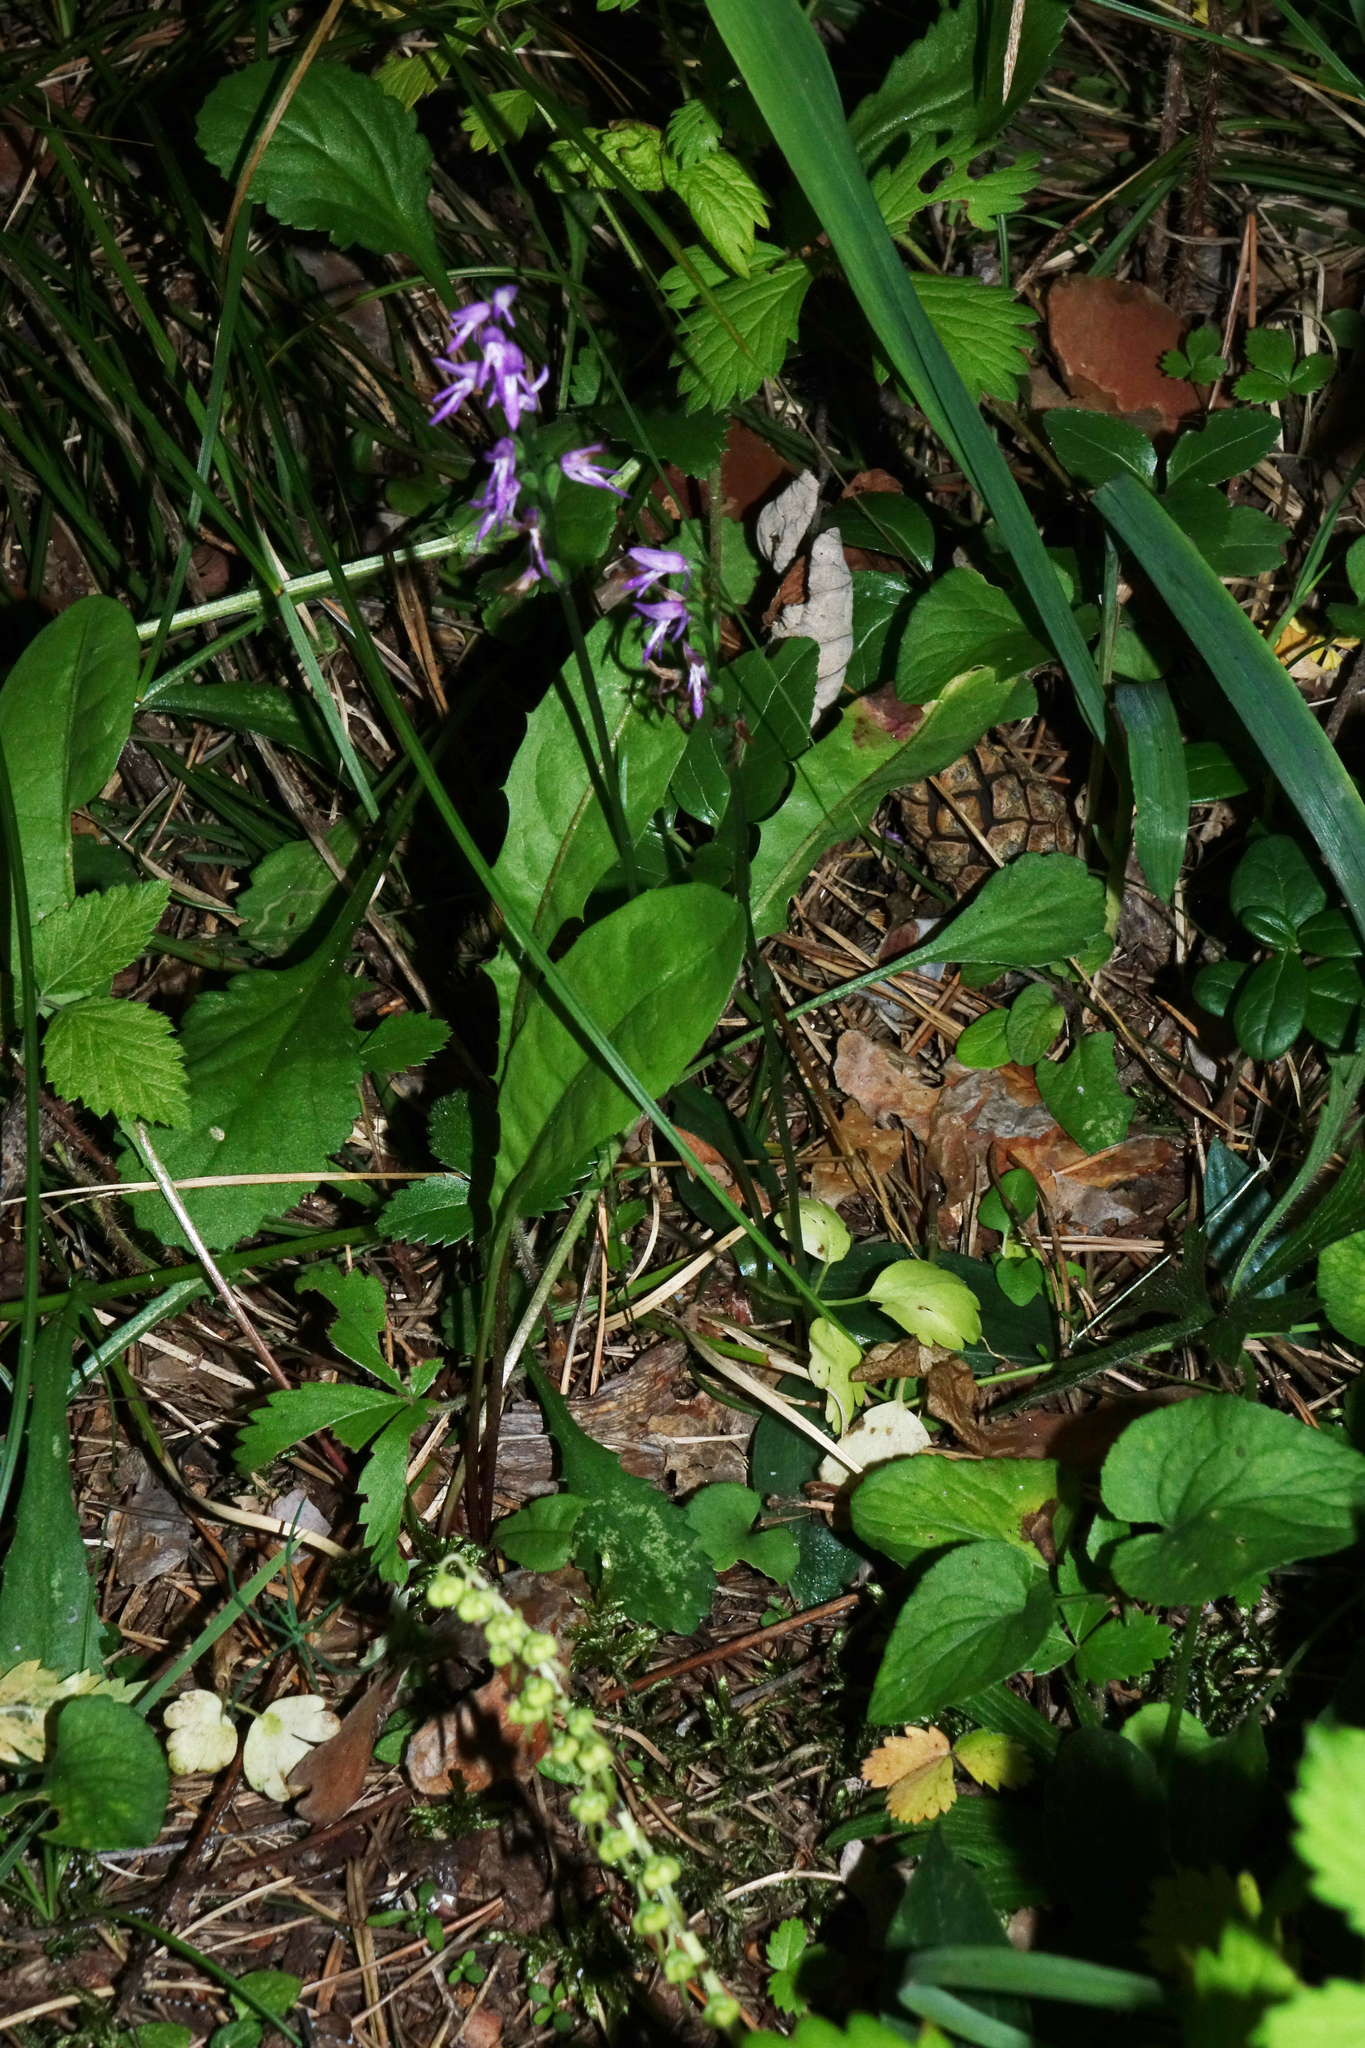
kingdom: Plantae
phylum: Tracheophyta
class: Liliopsida
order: Asparagales
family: Orchidaceae
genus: Hemipilia
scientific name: Hemipilia cucullata
